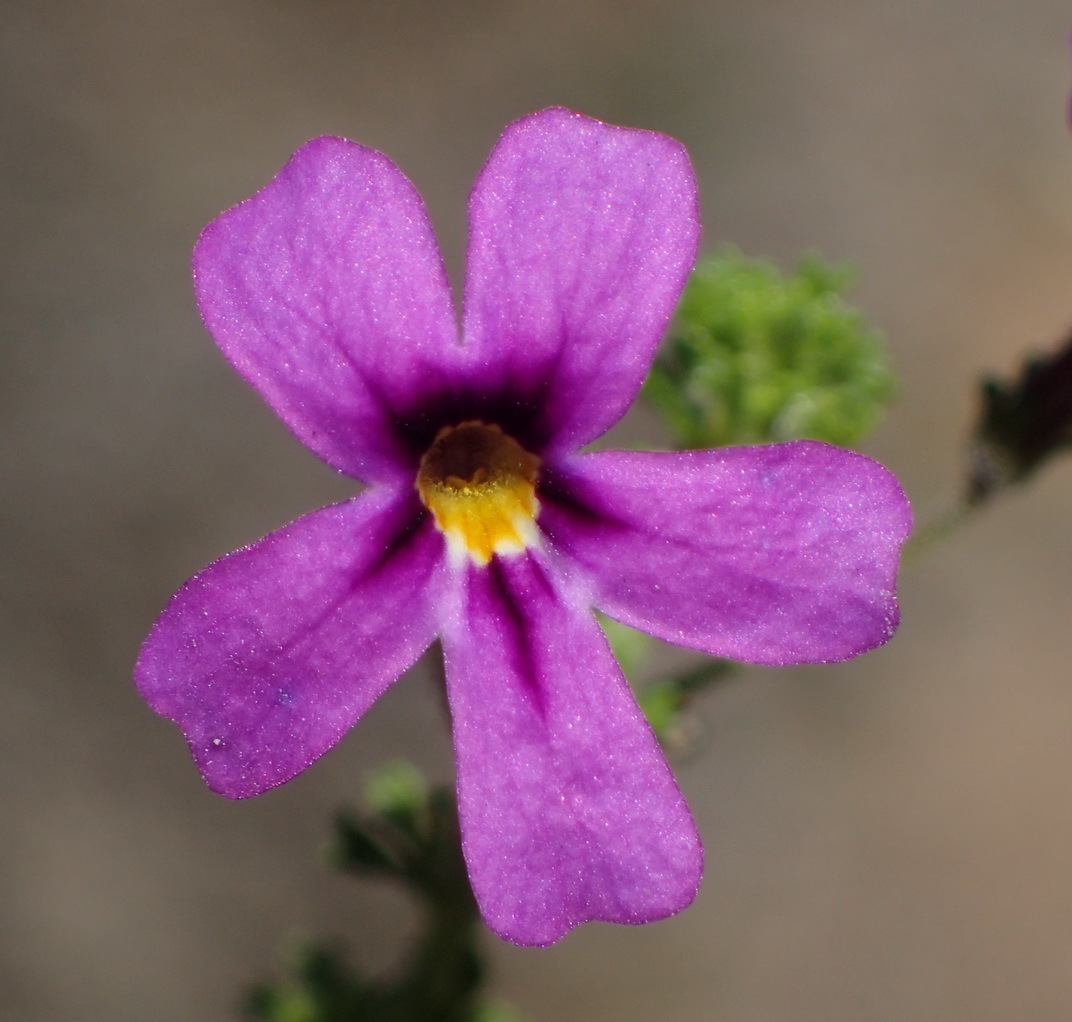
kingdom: Plantae
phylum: Tracheophyta
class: Magnoliopsida
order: Lamiales
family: Scrophulariaceae
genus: Jamesbrittenia
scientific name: Jamesbrittenia tenuifolia
